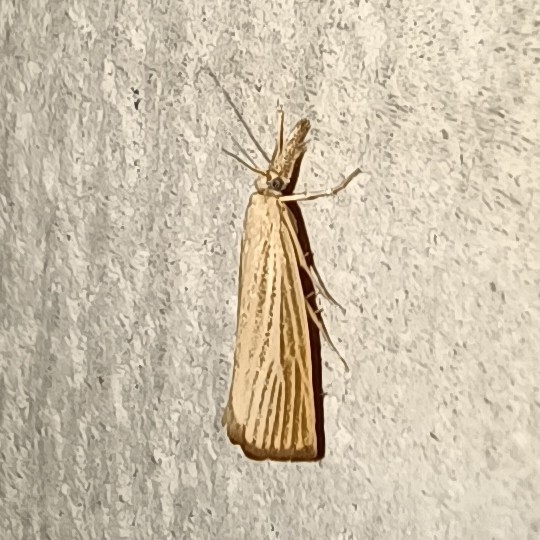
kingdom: Animalia
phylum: Arthropoda
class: Insecta
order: Lepidoptera
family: Crambidae
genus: Agriphila
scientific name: Agriphila straminella
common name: Straw grass-veneer
